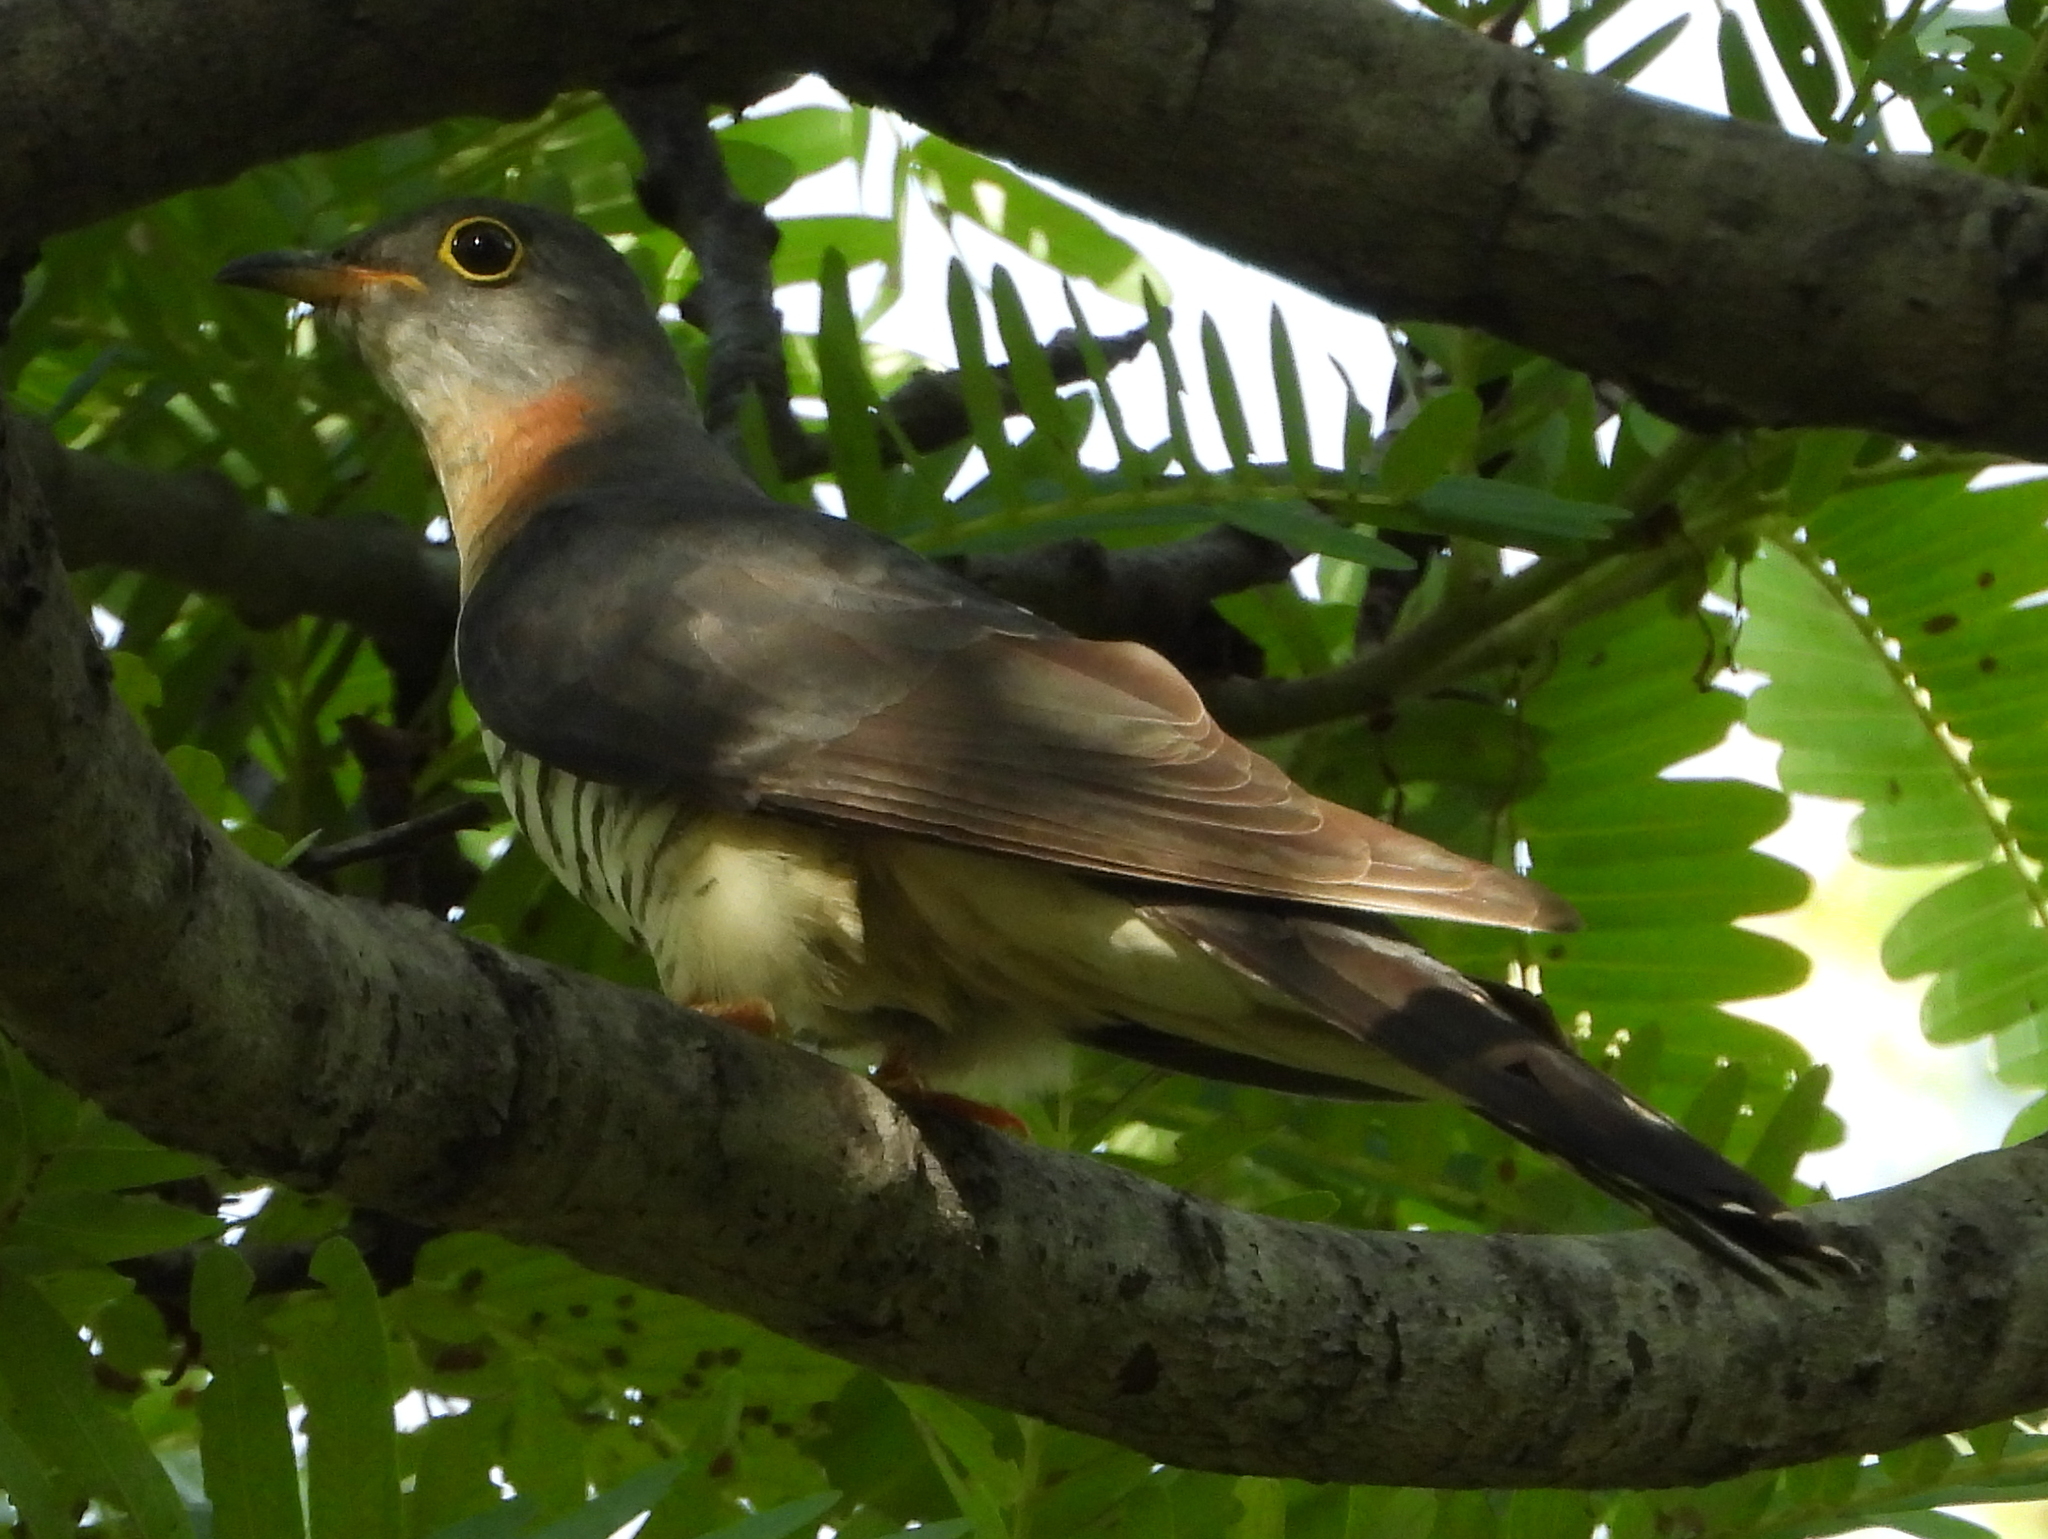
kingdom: Animalia
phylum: Chordata
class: Aves
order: Cuculiformes
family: Cuculidae
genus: Cuculus
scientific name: Cuculus solitarius
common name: Red-chested cuckoo
